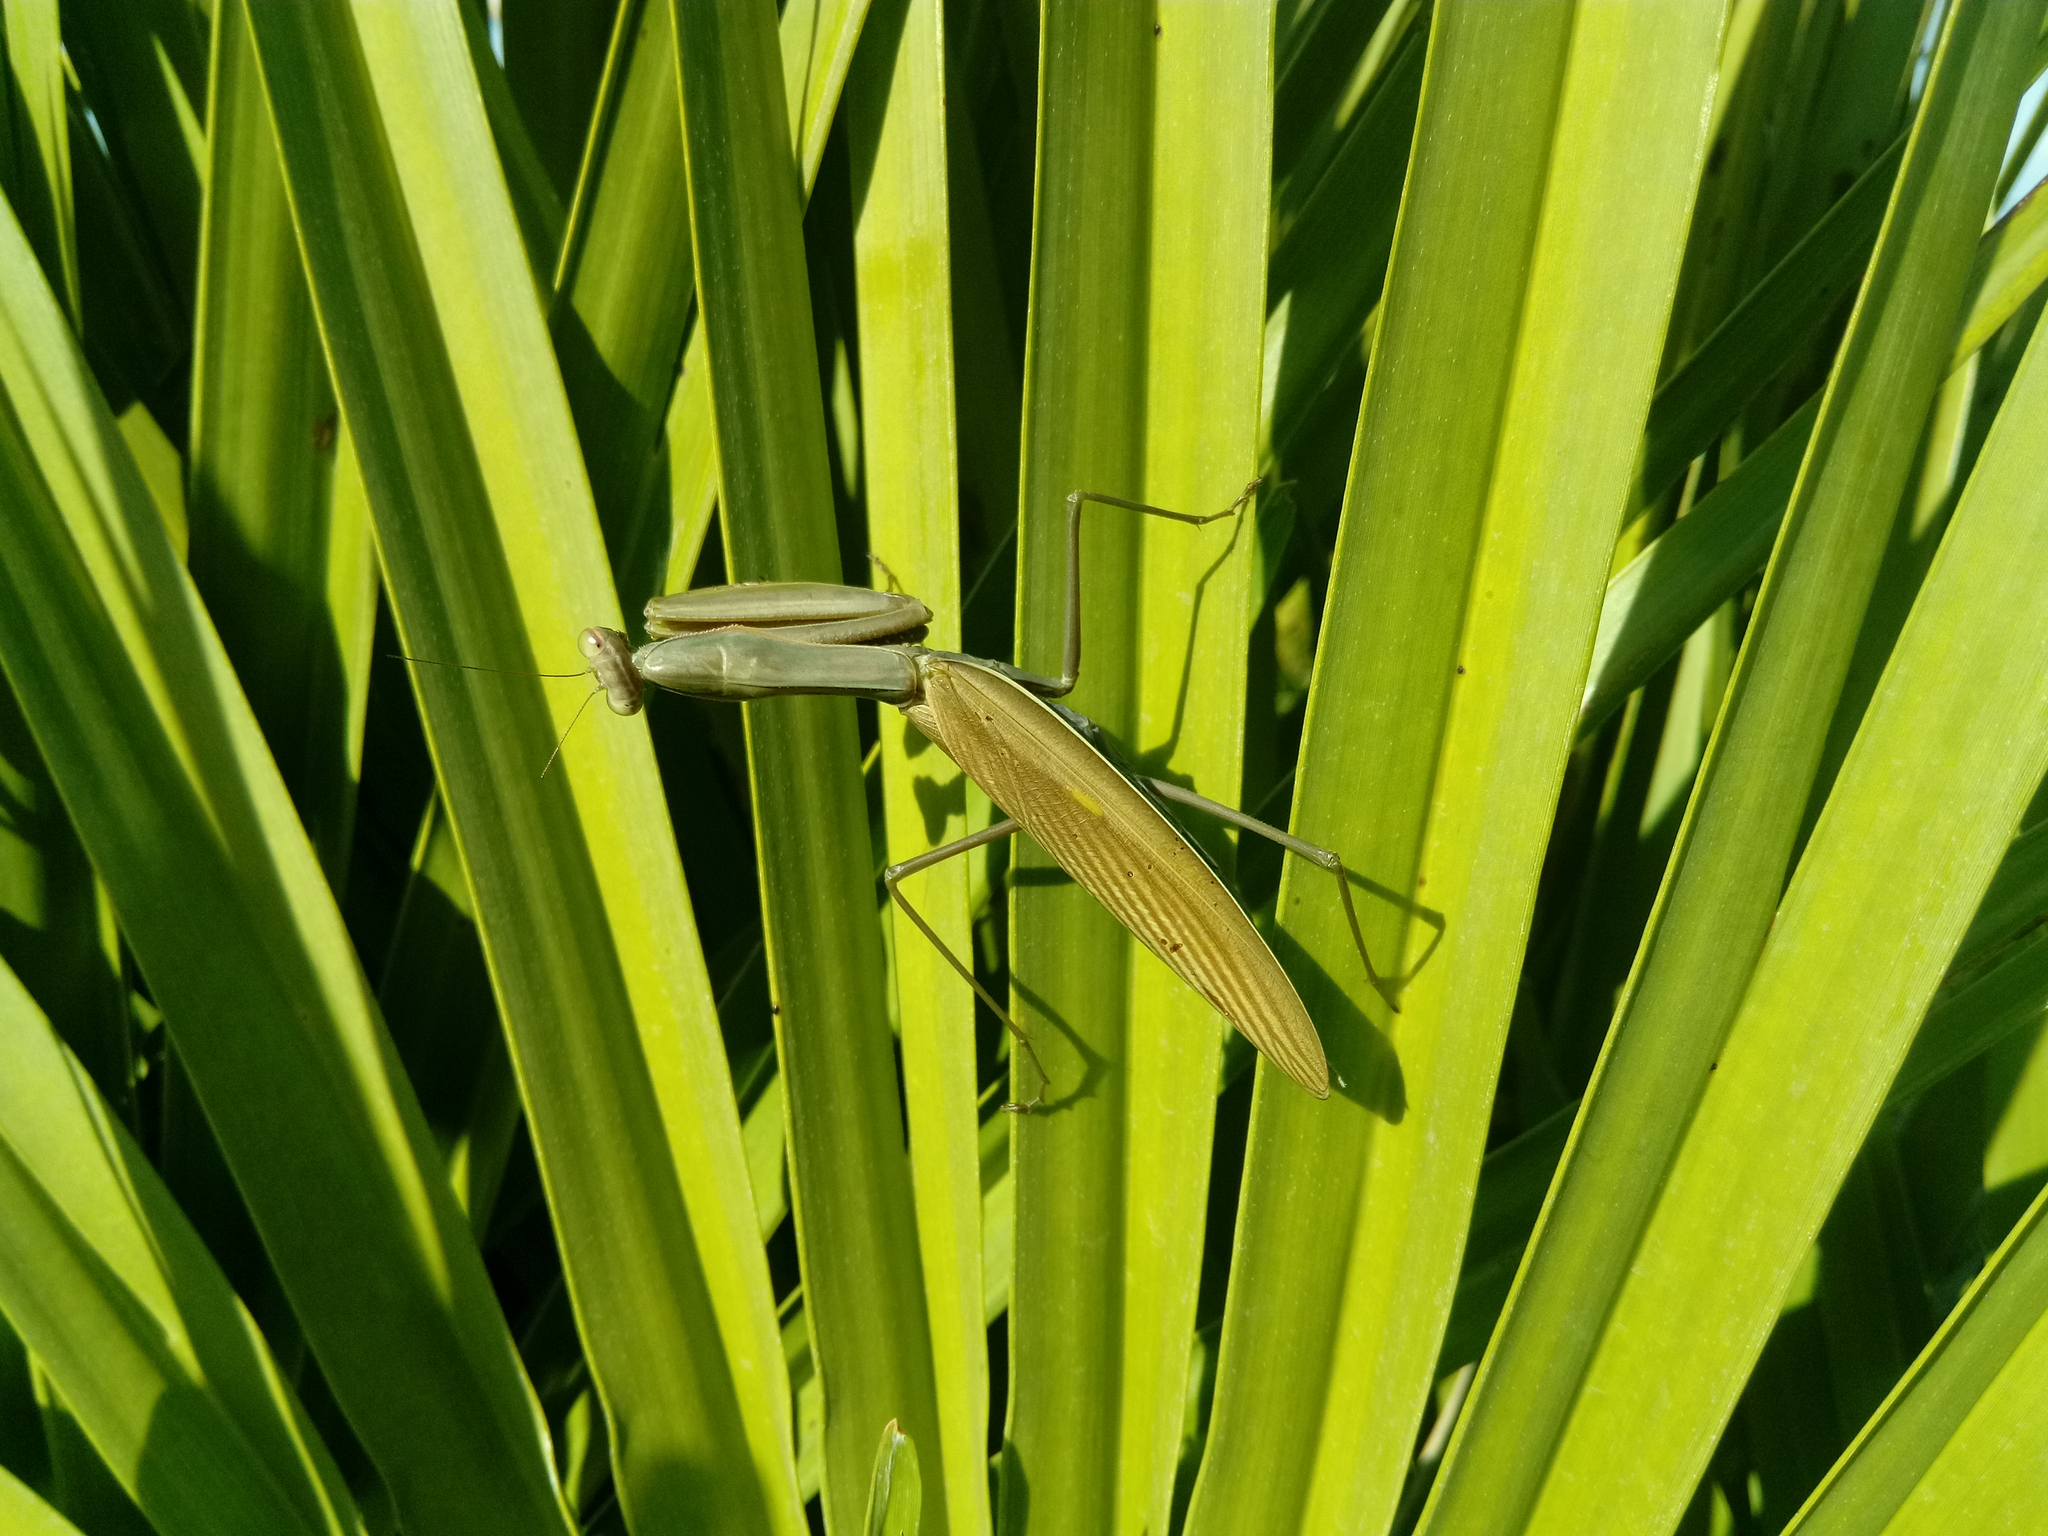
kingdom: Animalia
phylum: Arthropoda
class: Insecta
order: Mantodea
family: Mantidae
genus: Mantis
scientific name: Mantis religiosa
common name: Praying mantis
